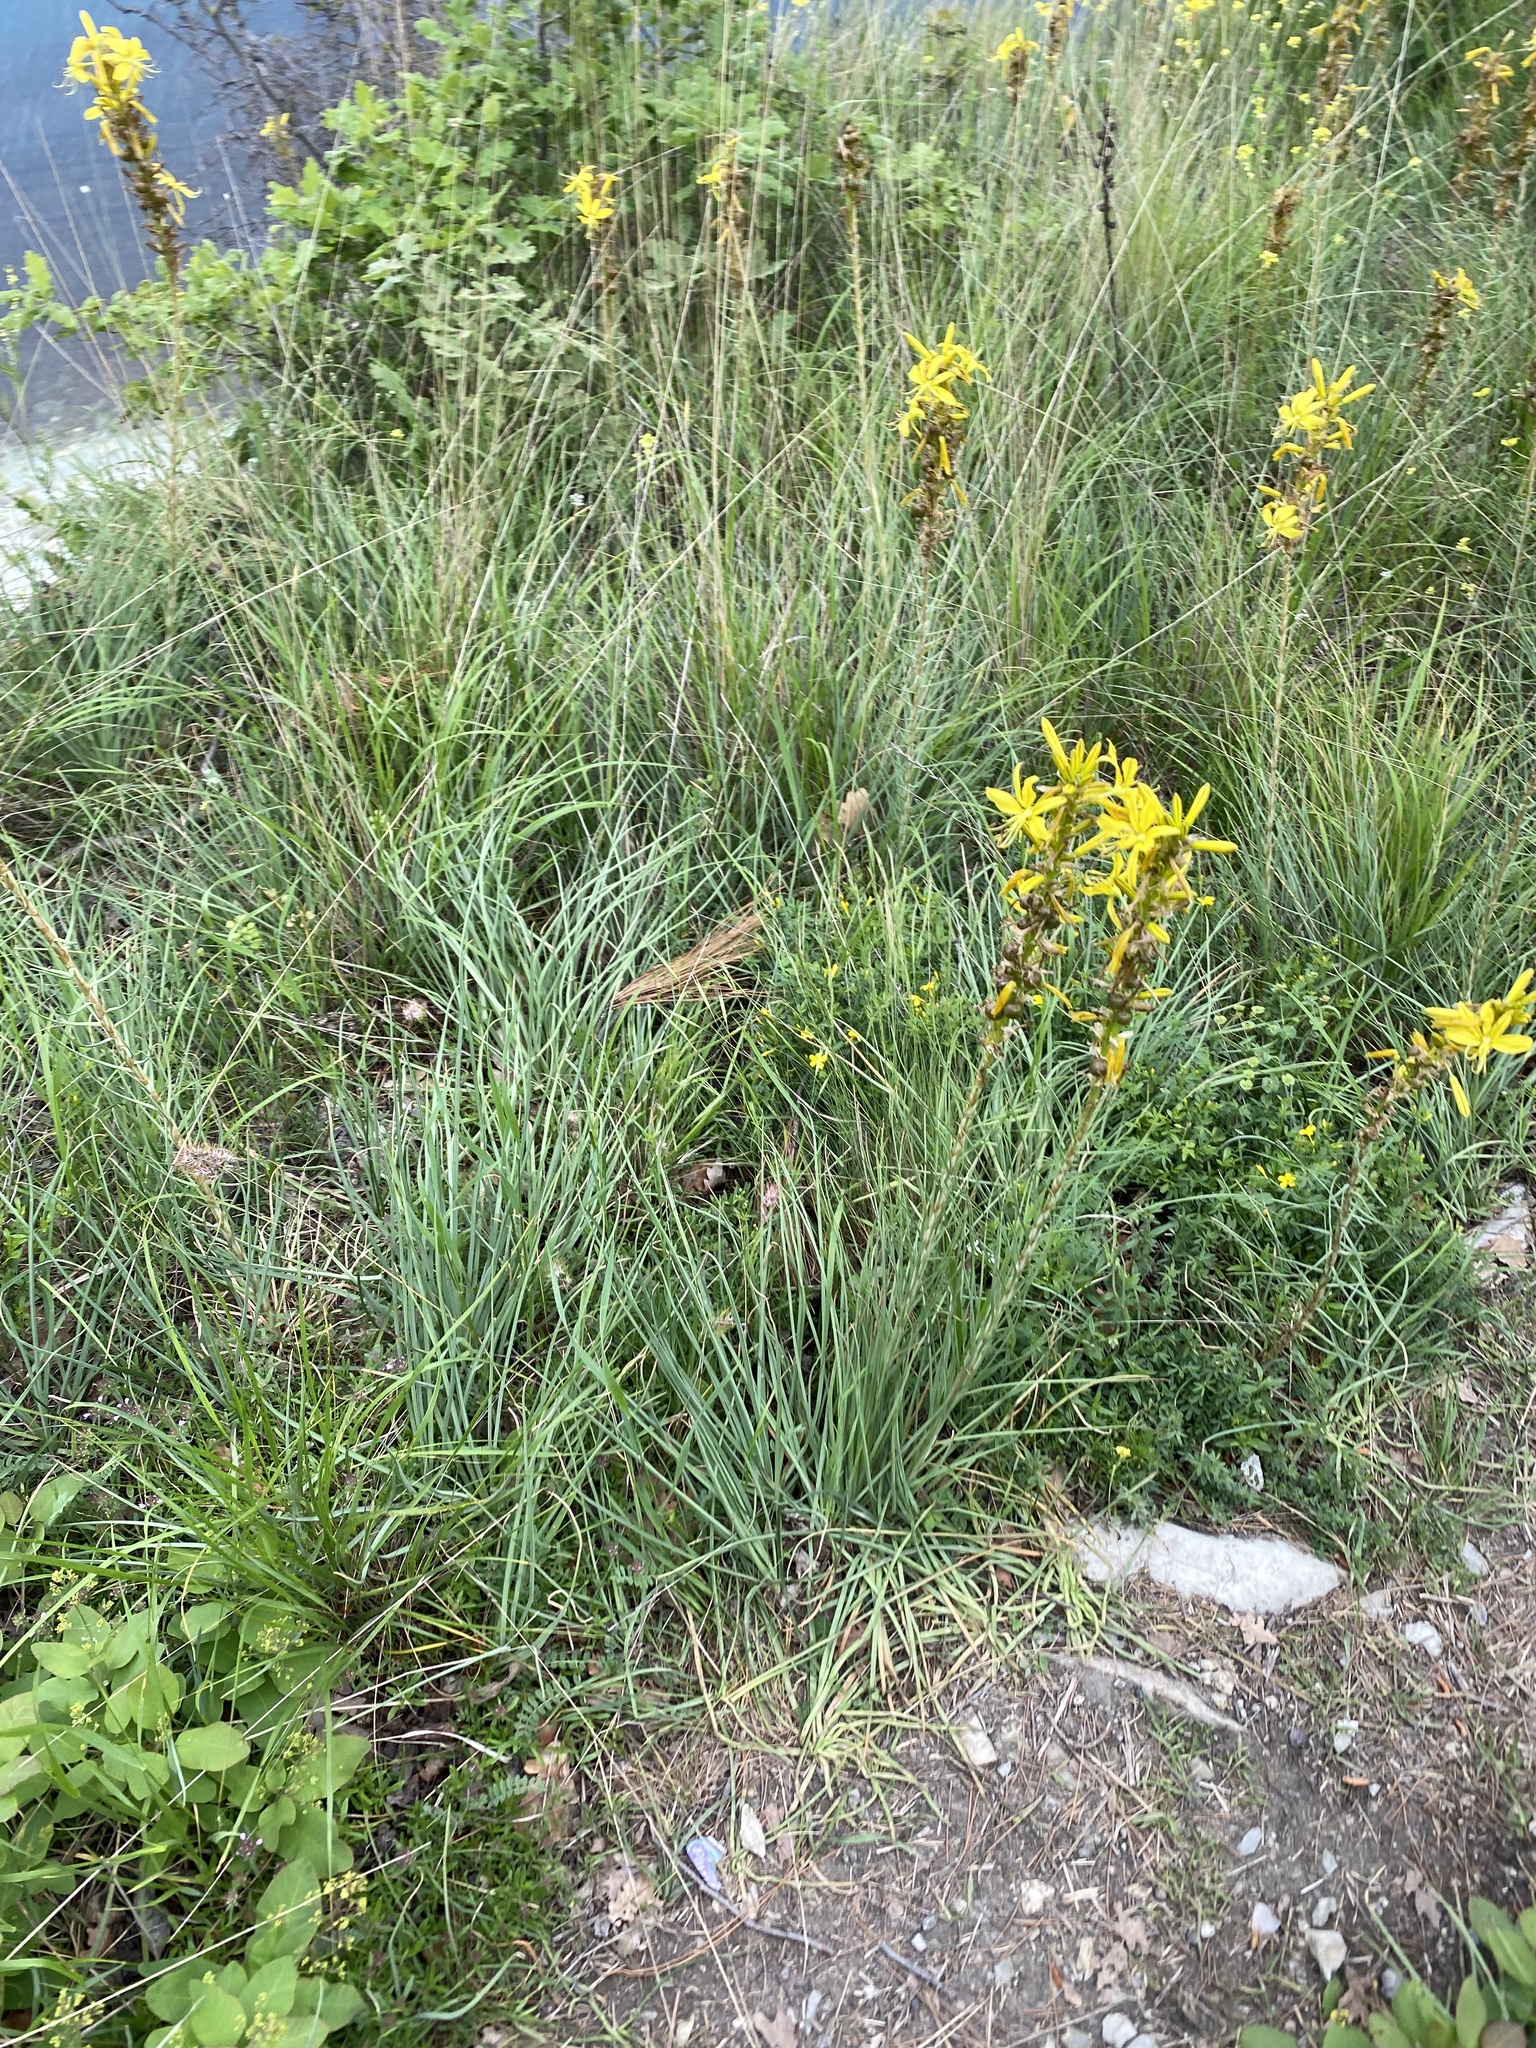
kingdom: Plantae
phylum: Tracheophyta
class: Liliopsida
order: Asparagales
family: Asphodelaceae
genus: Asphodeline
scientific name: Asphodeline lutea
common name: Yellow asphodel
